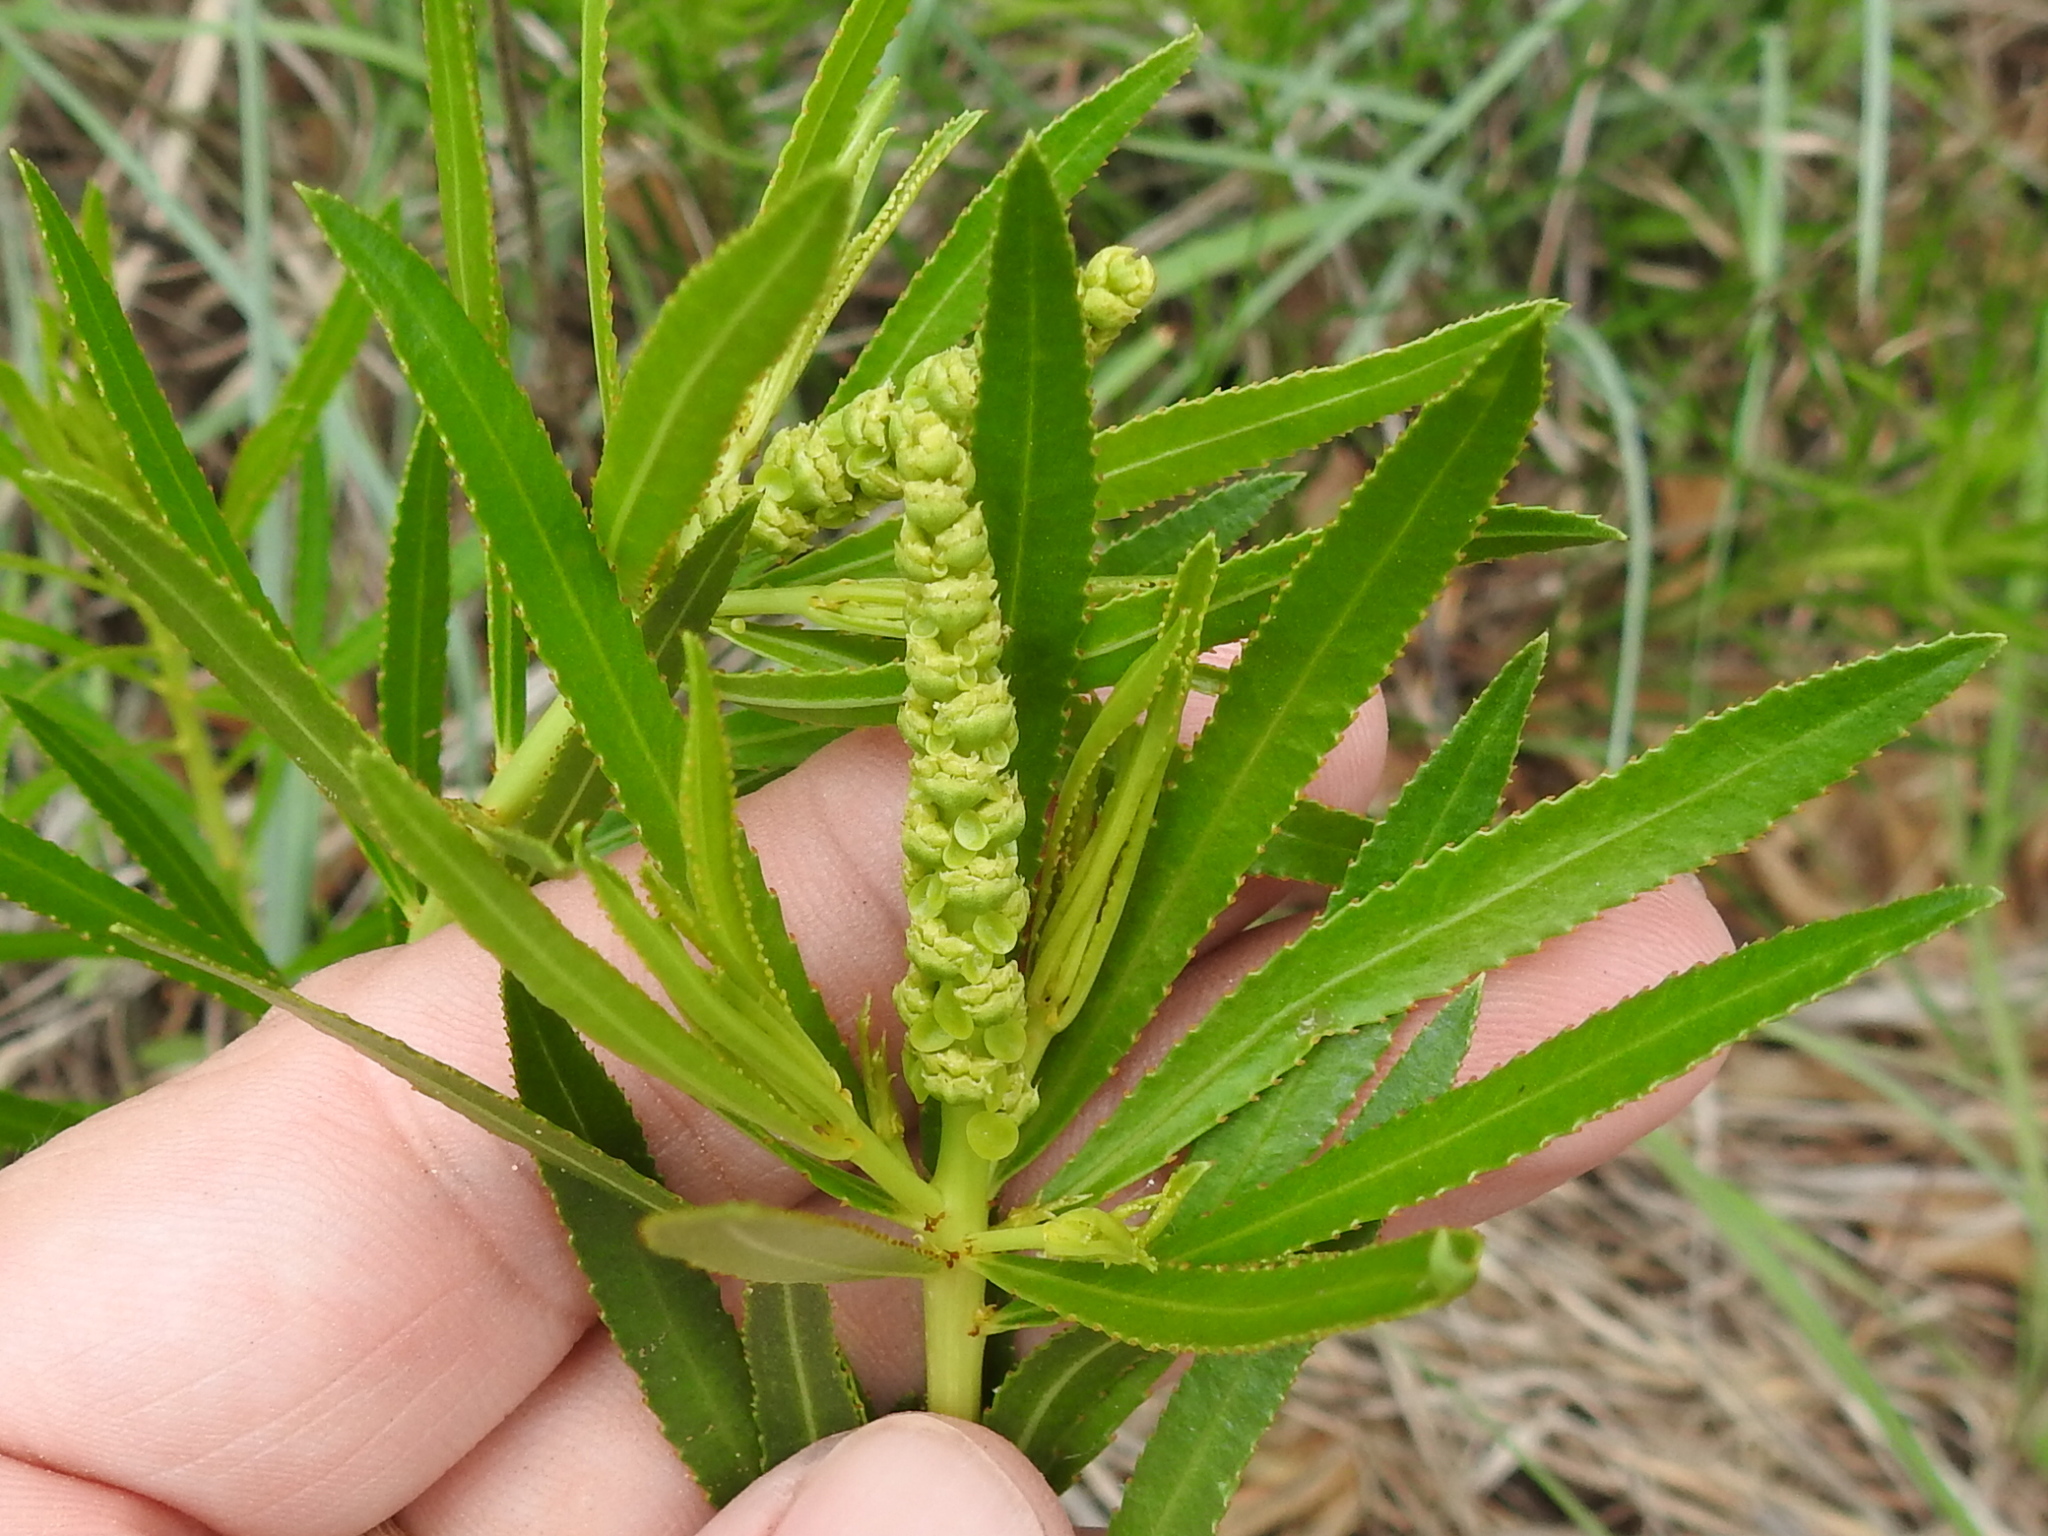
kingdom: Plantae
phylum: Tracheophyta
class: Magnoliopsida
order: Malpighiales
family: Euphorbiaceae
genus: Stillingia
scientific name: Stillingia texana
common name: Texas stillingia
